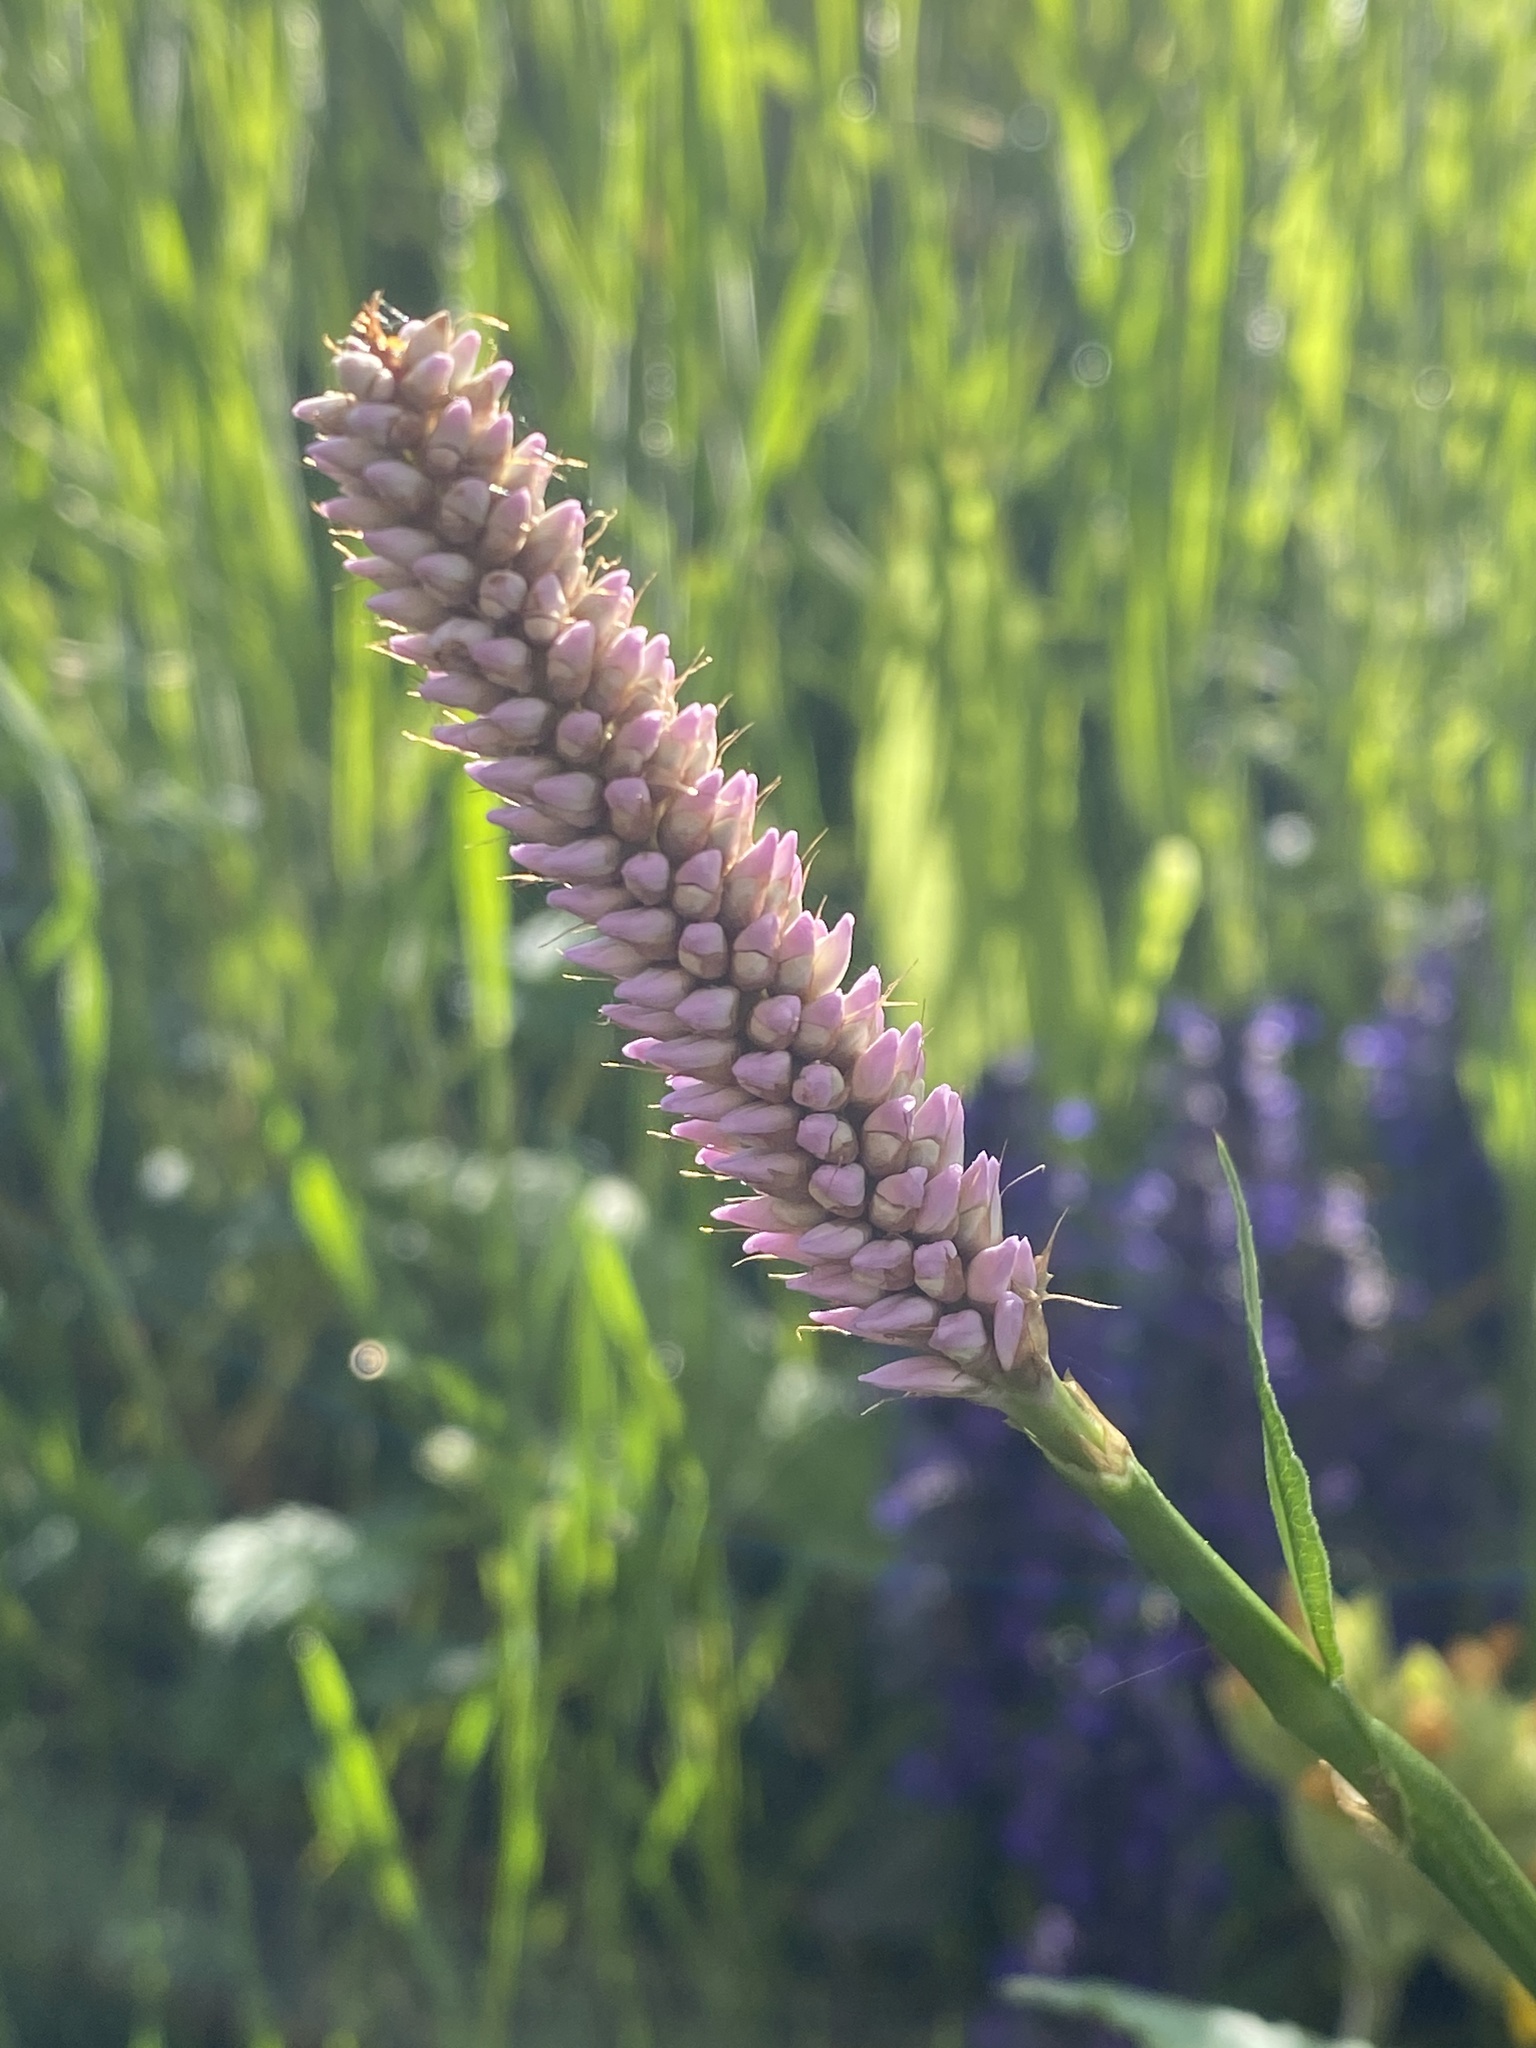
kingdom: Plantae
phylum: Tracheophyta
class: Magnoliopsida
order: Caryophyllales
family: Polygonaceae
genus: Bistorta
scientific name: Bistorta officinalis
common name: Common bistort
